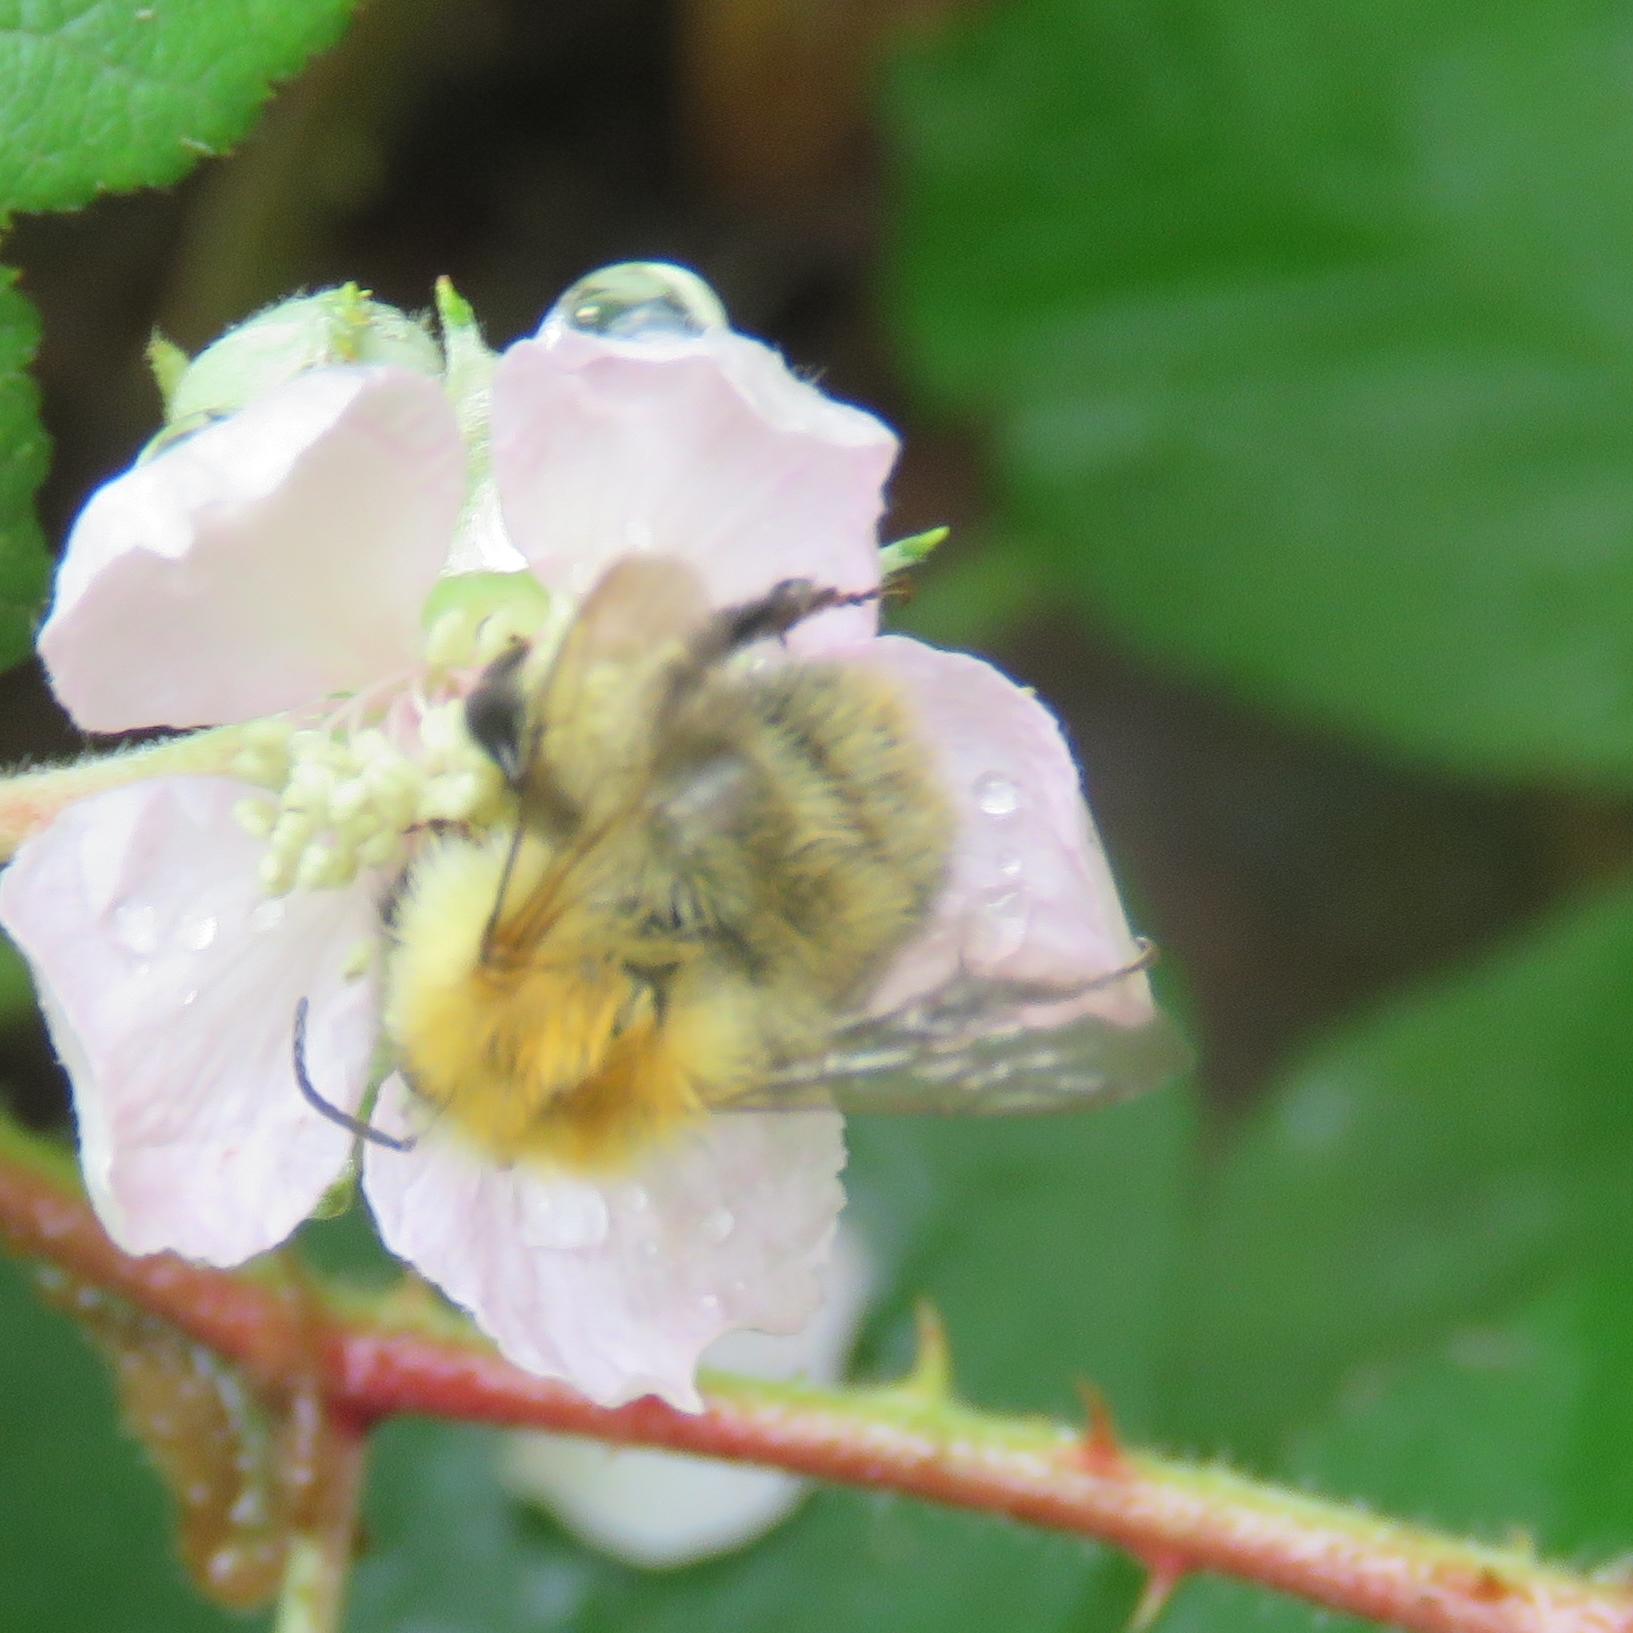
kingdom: Animalia
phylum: Arthropoda
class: Insecta
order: Hymenoptera
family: Apidae
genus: Bombus
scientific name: Bombus pascuorum
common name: Common carder bee
